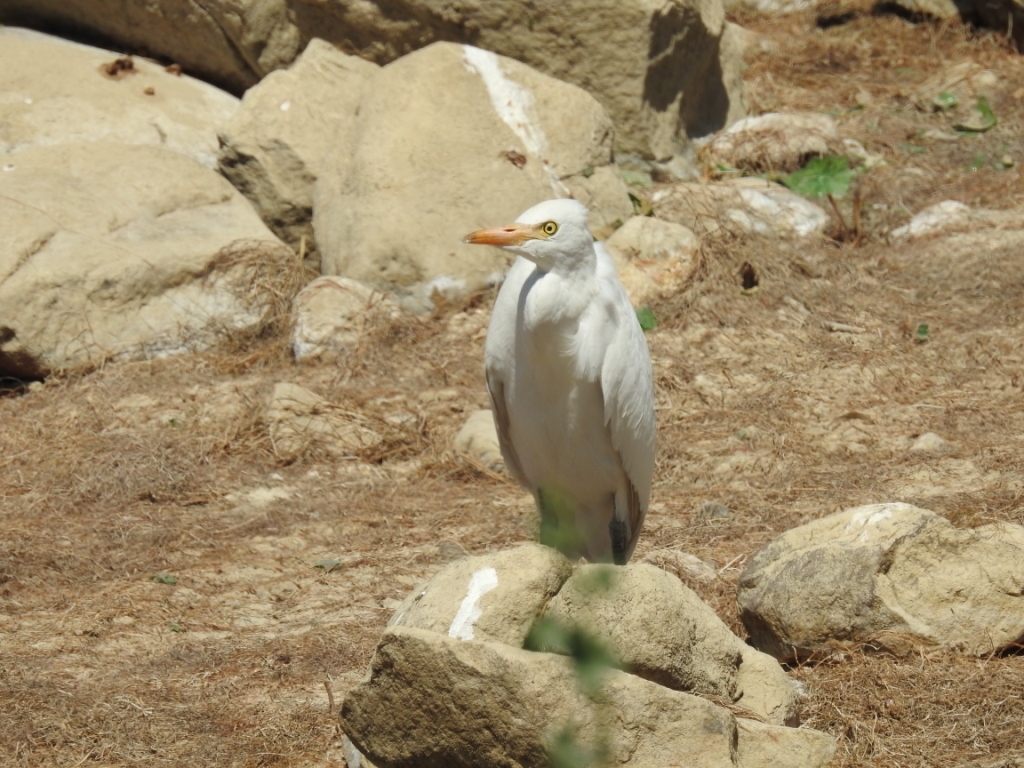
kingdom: Animalia
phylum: Chordata
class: Aves
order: Pelecaniformes
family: Ardeidae
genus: Bubulcus
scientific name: Bubulcus ibis
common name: Cattle egret
